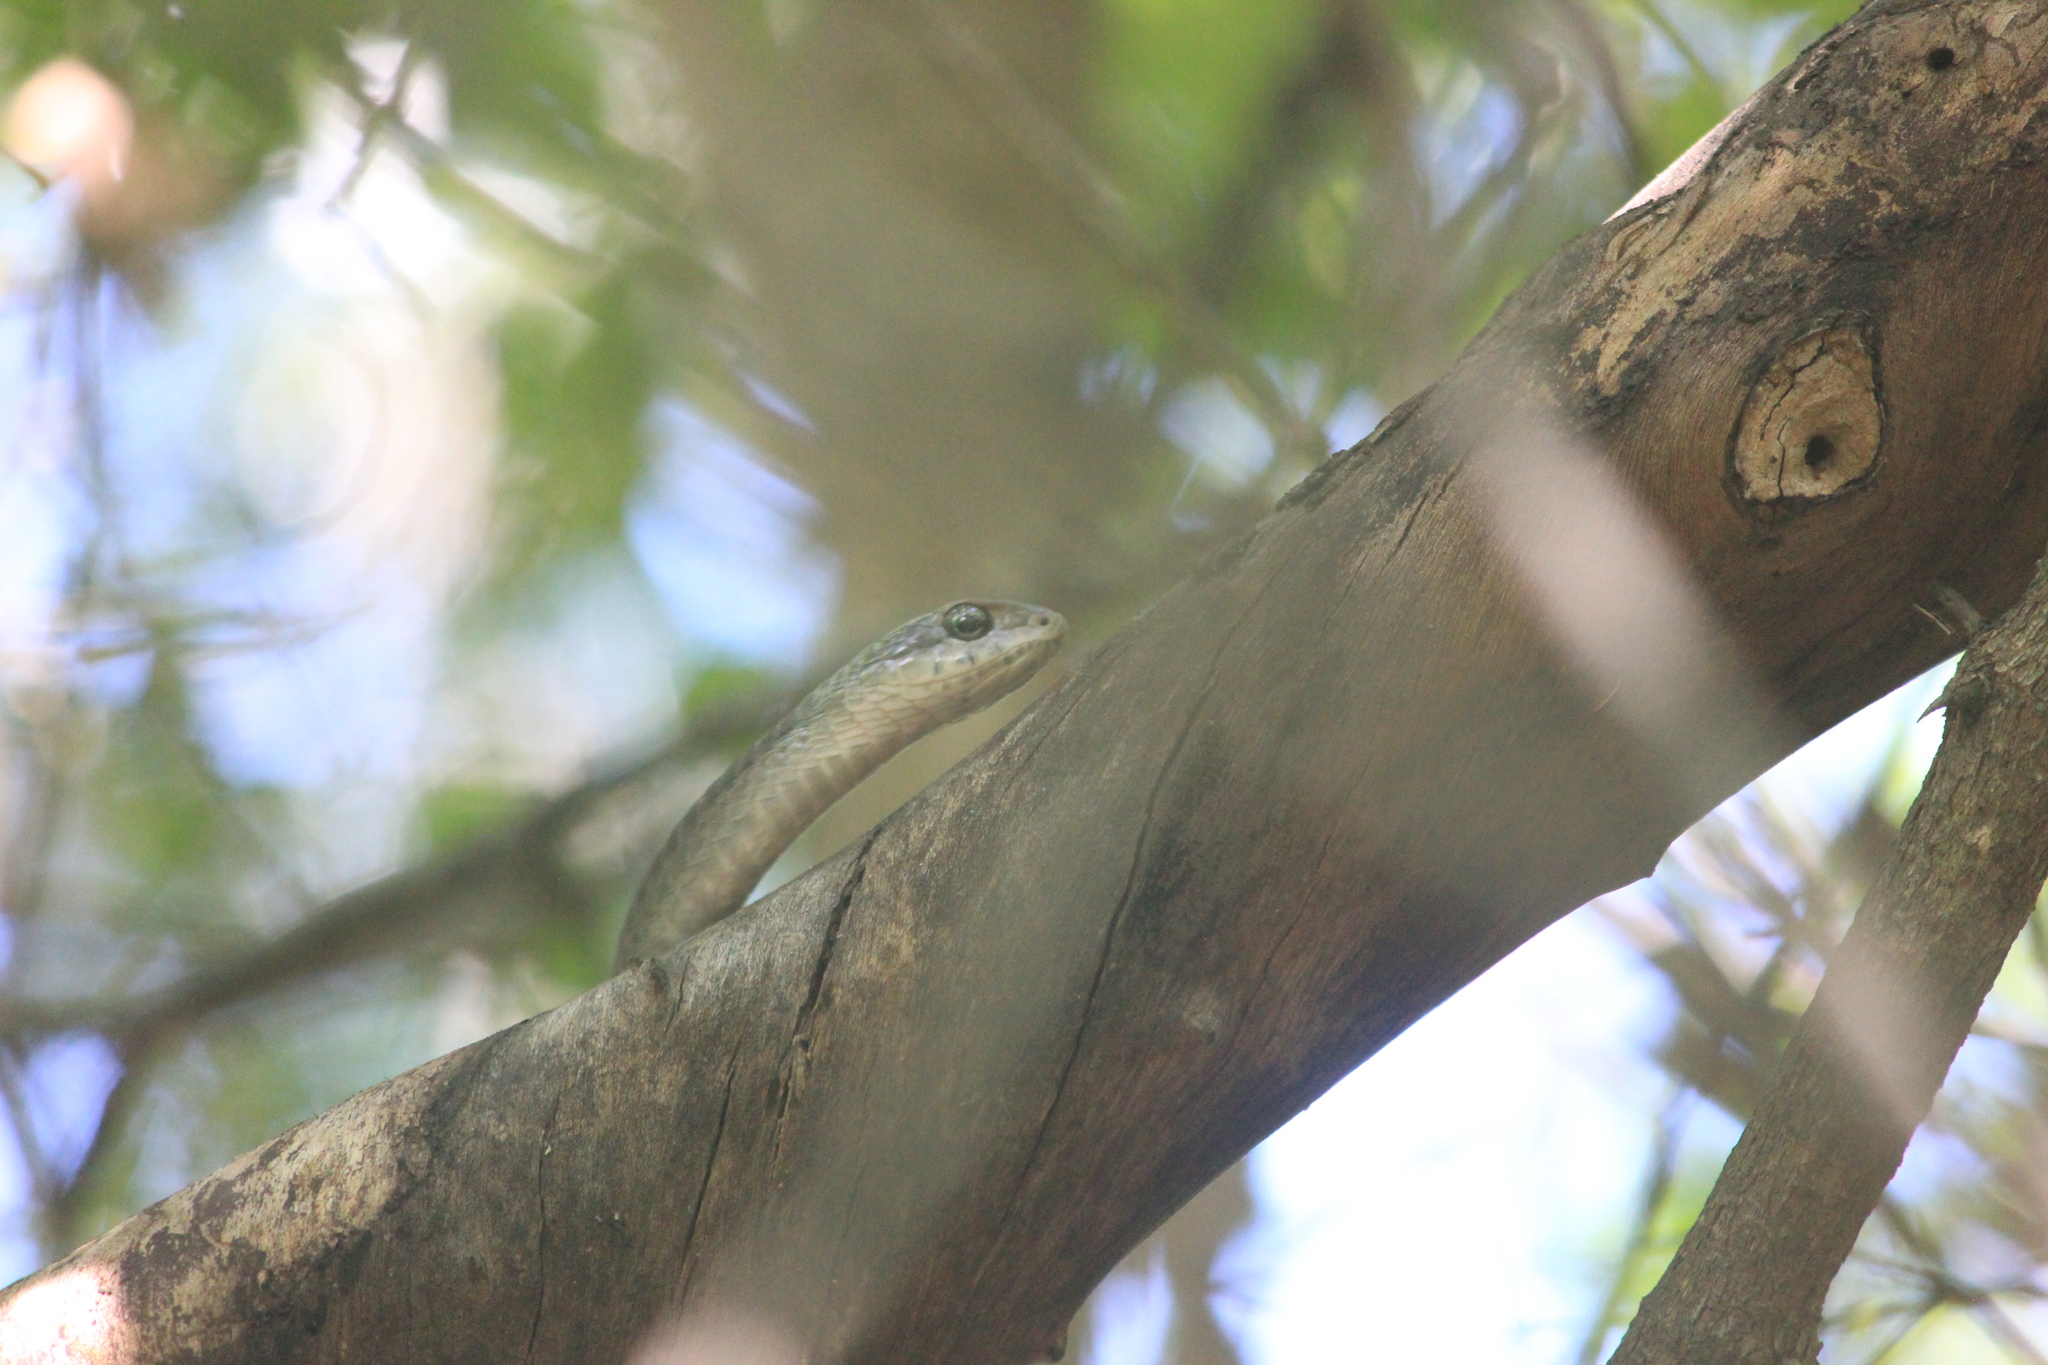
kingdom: Animalia
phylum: Chordata
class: Squamata
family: Colubridae
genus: Dispholidus
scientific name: Dispholidus typus
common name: Boomslang
